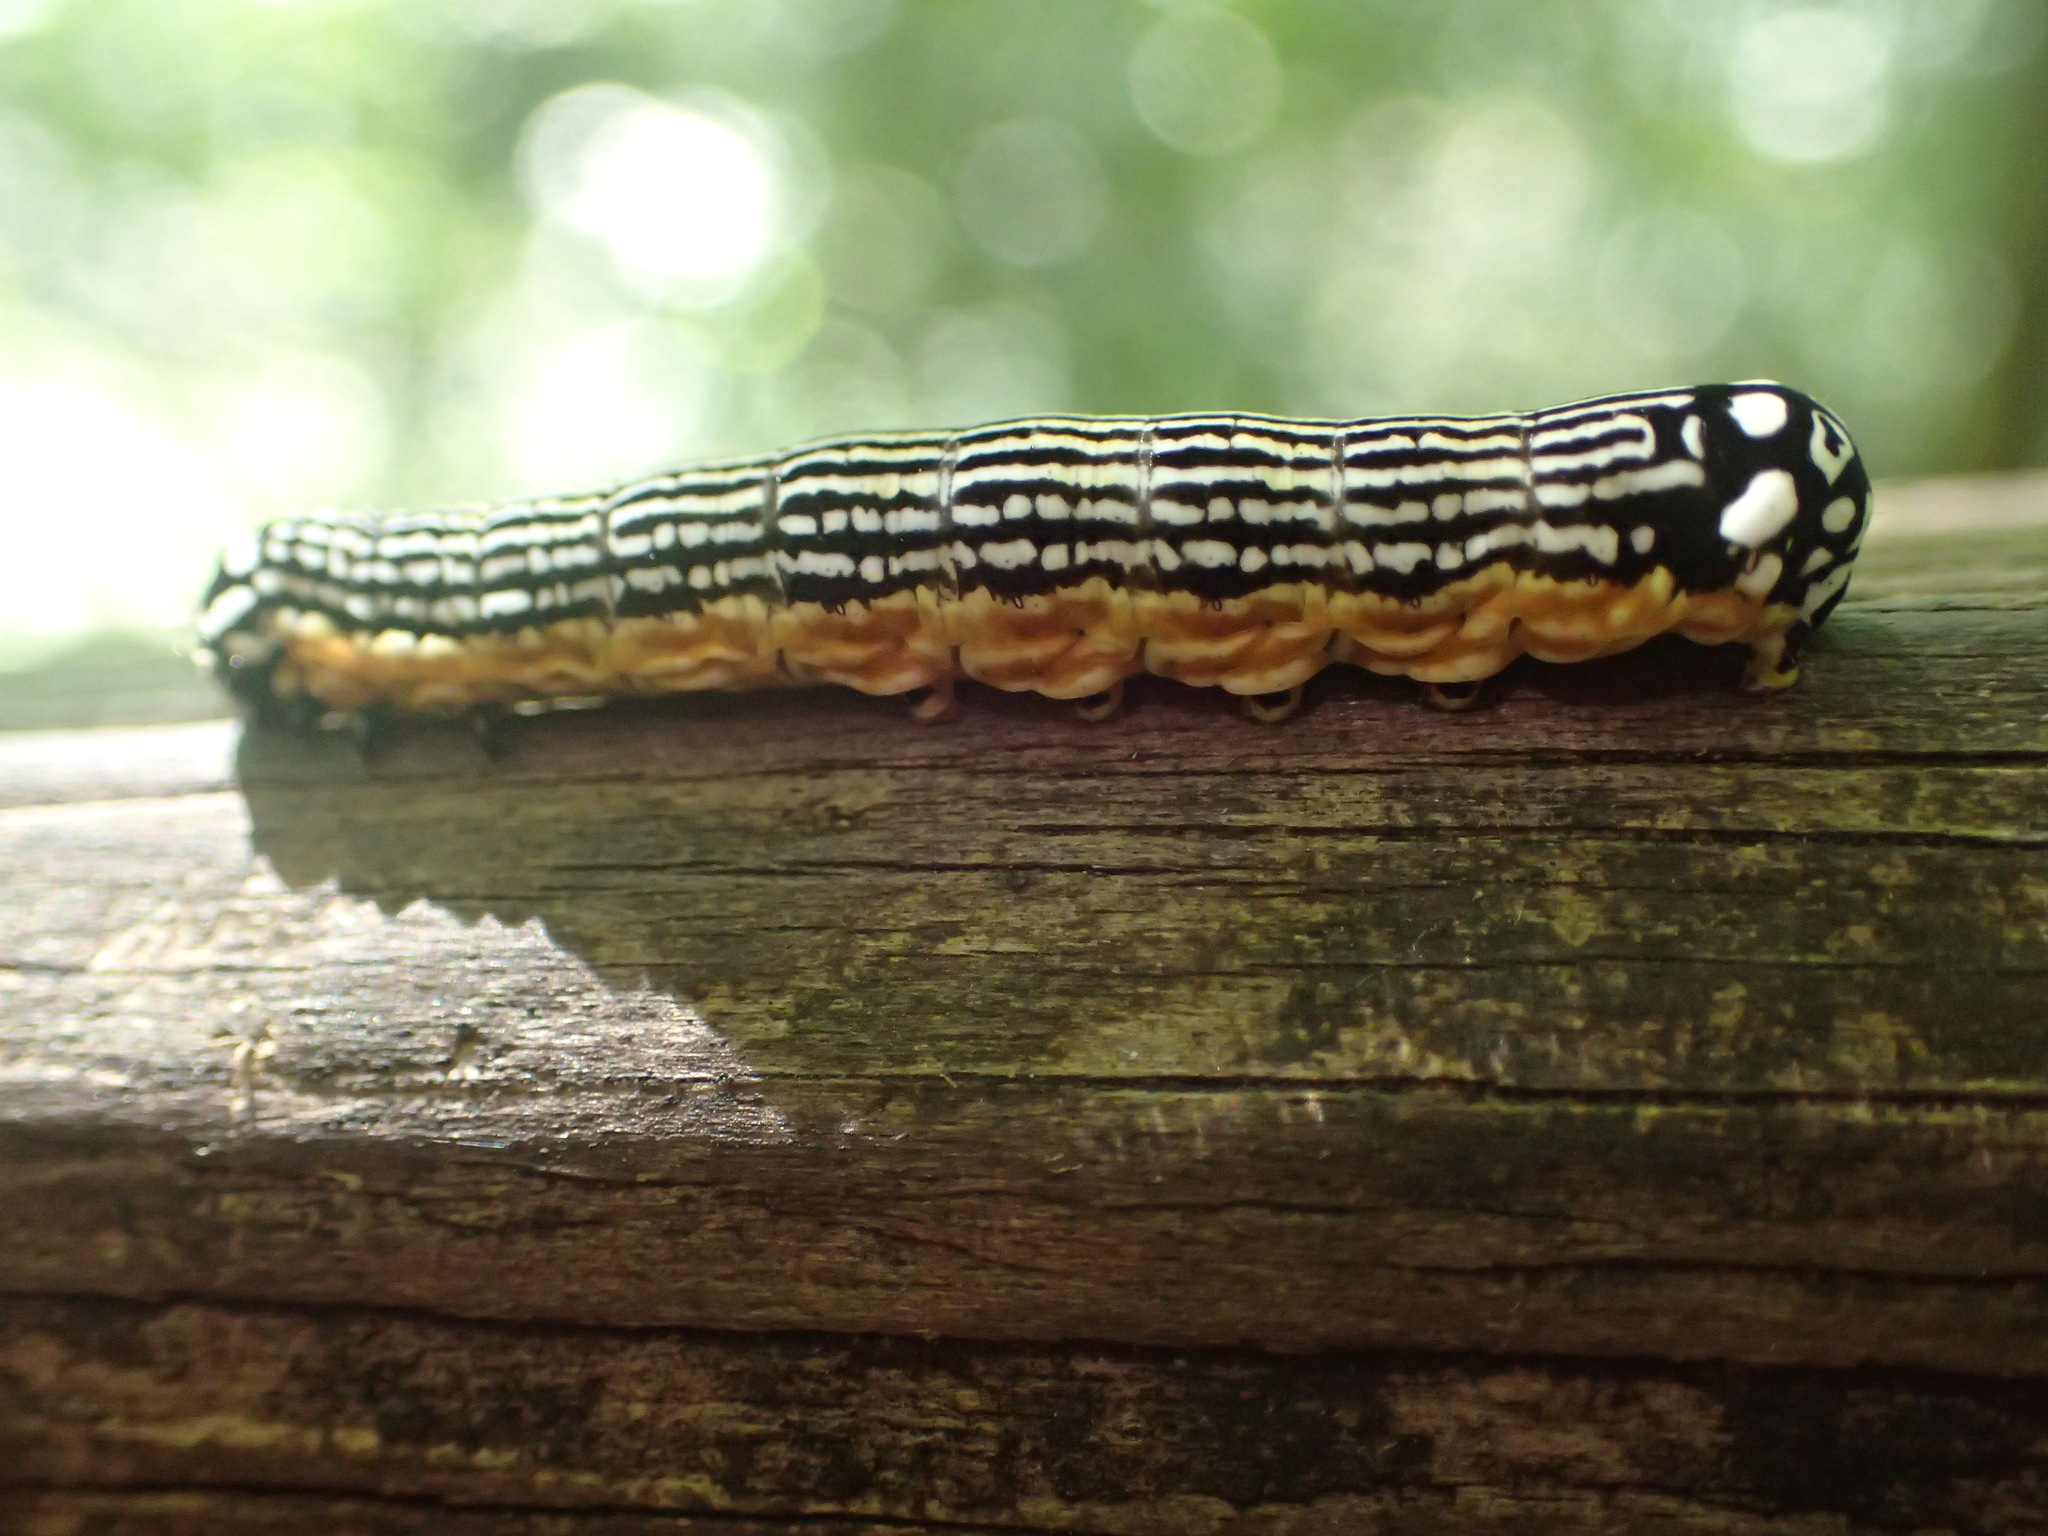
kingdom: Animalia
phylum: Arthropoda
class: Insecta
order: Lepidoptera
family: Noctuidae
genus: Phosphila
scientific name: Phosphila turbulenta
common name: Turbulent phosphila moth
